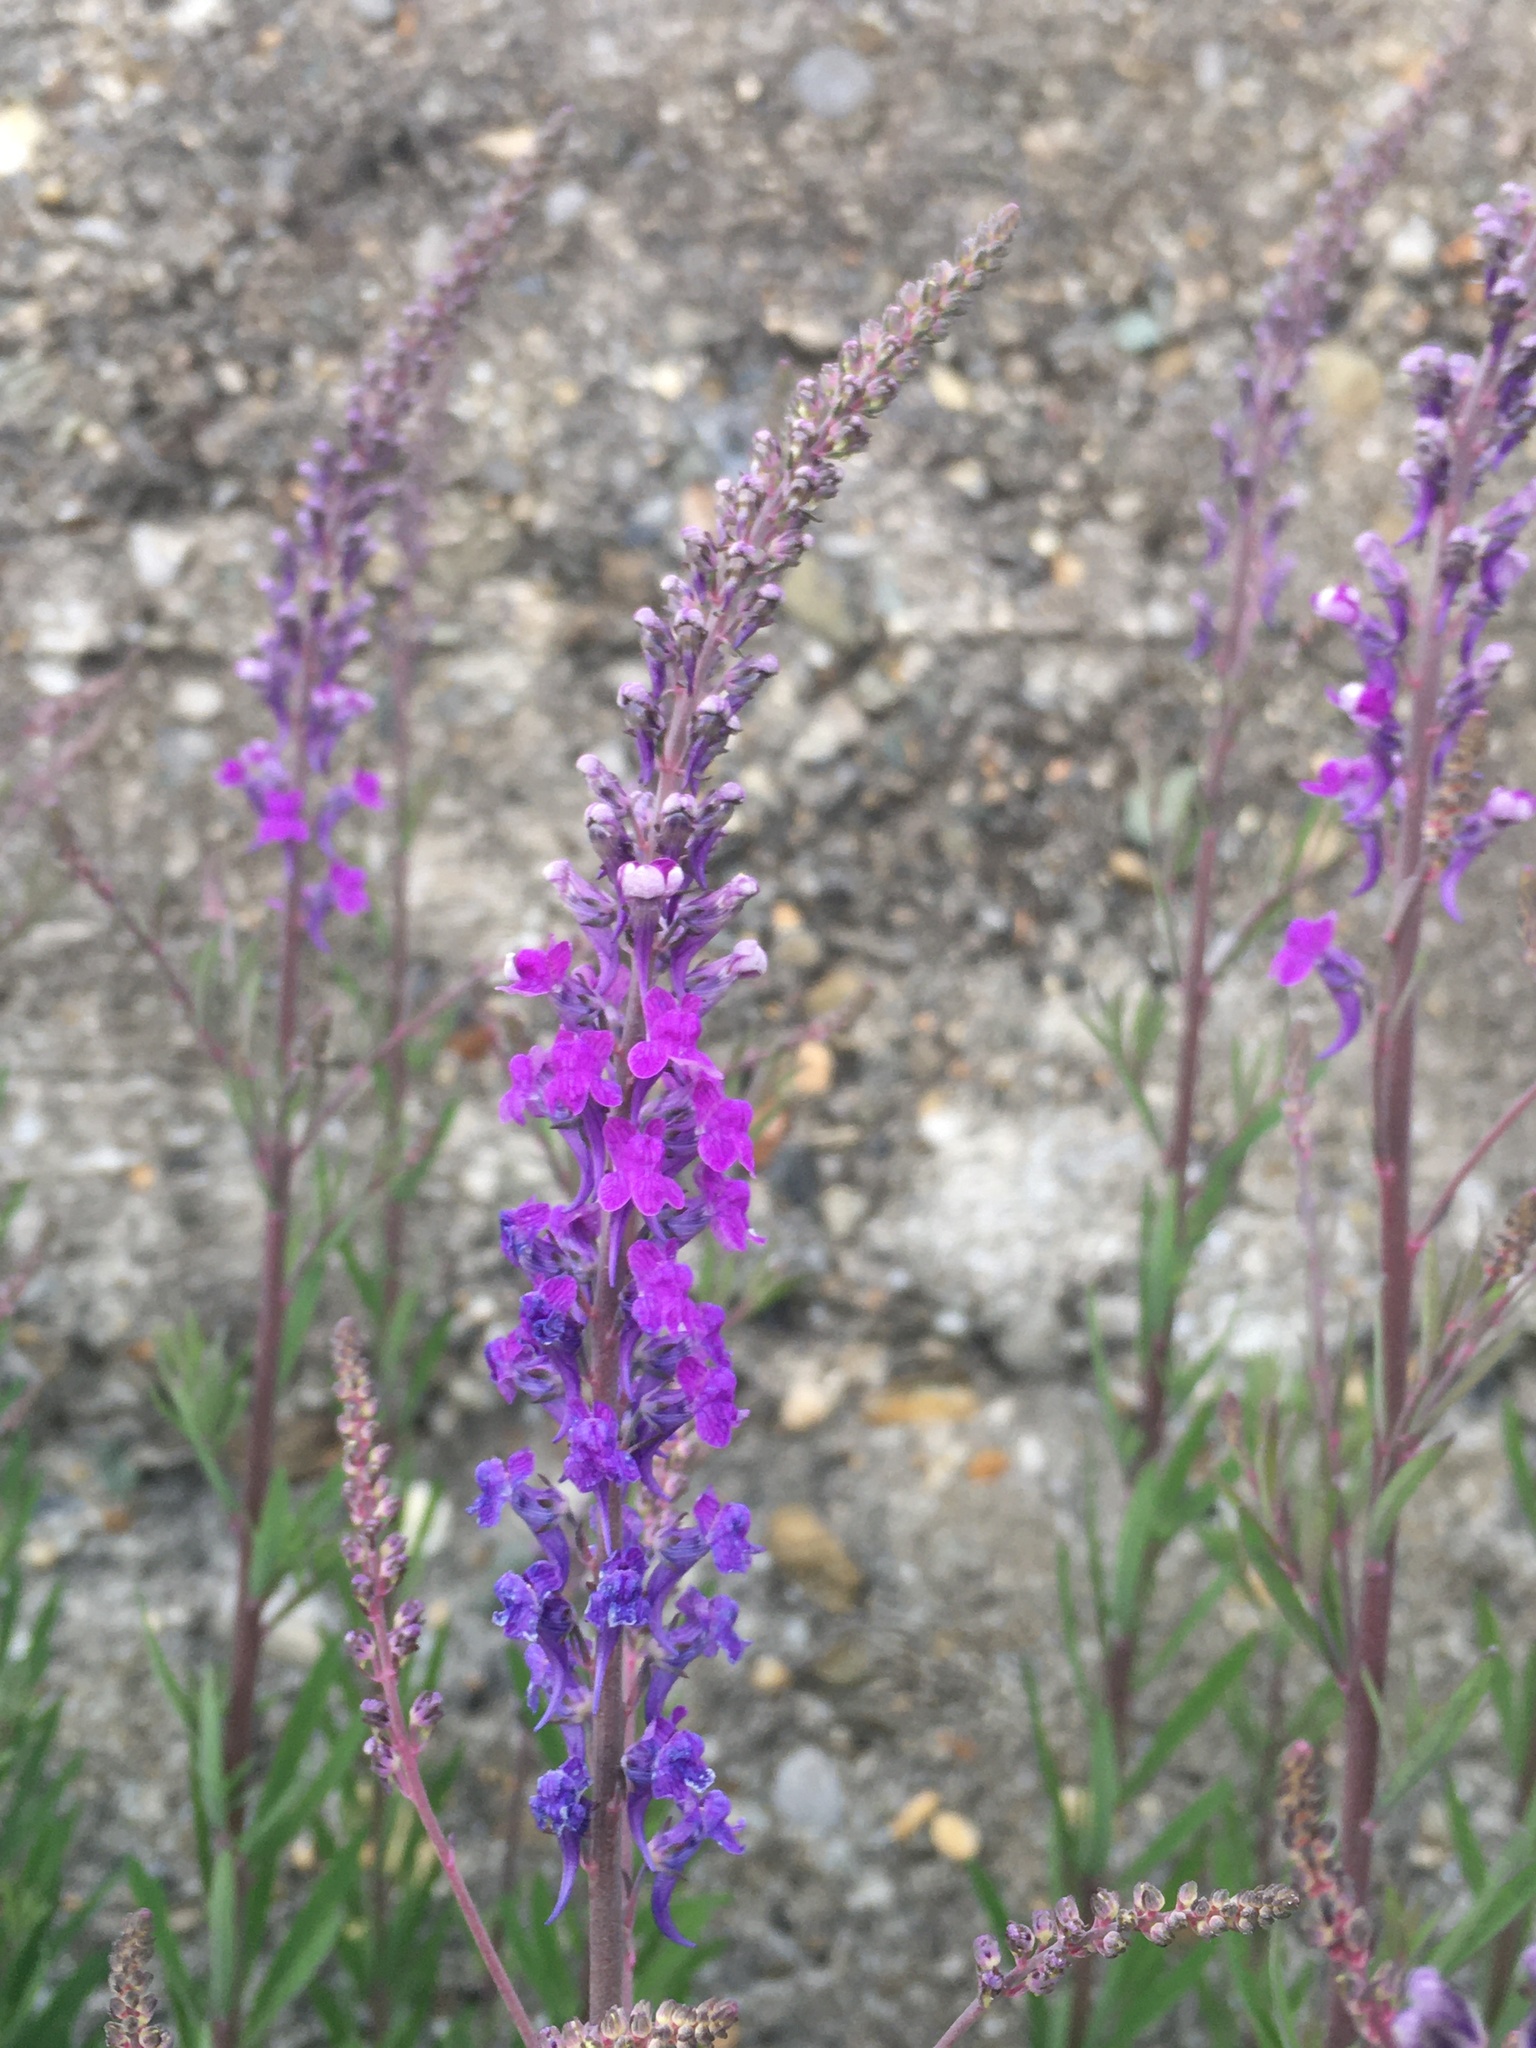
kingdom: Plantae
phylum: Tracheophyta
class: Magnoliopsida
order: Lamiales
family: Plantaginaceae
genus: Linaria
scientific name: Linaria purpurea
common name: Purple toadflax
